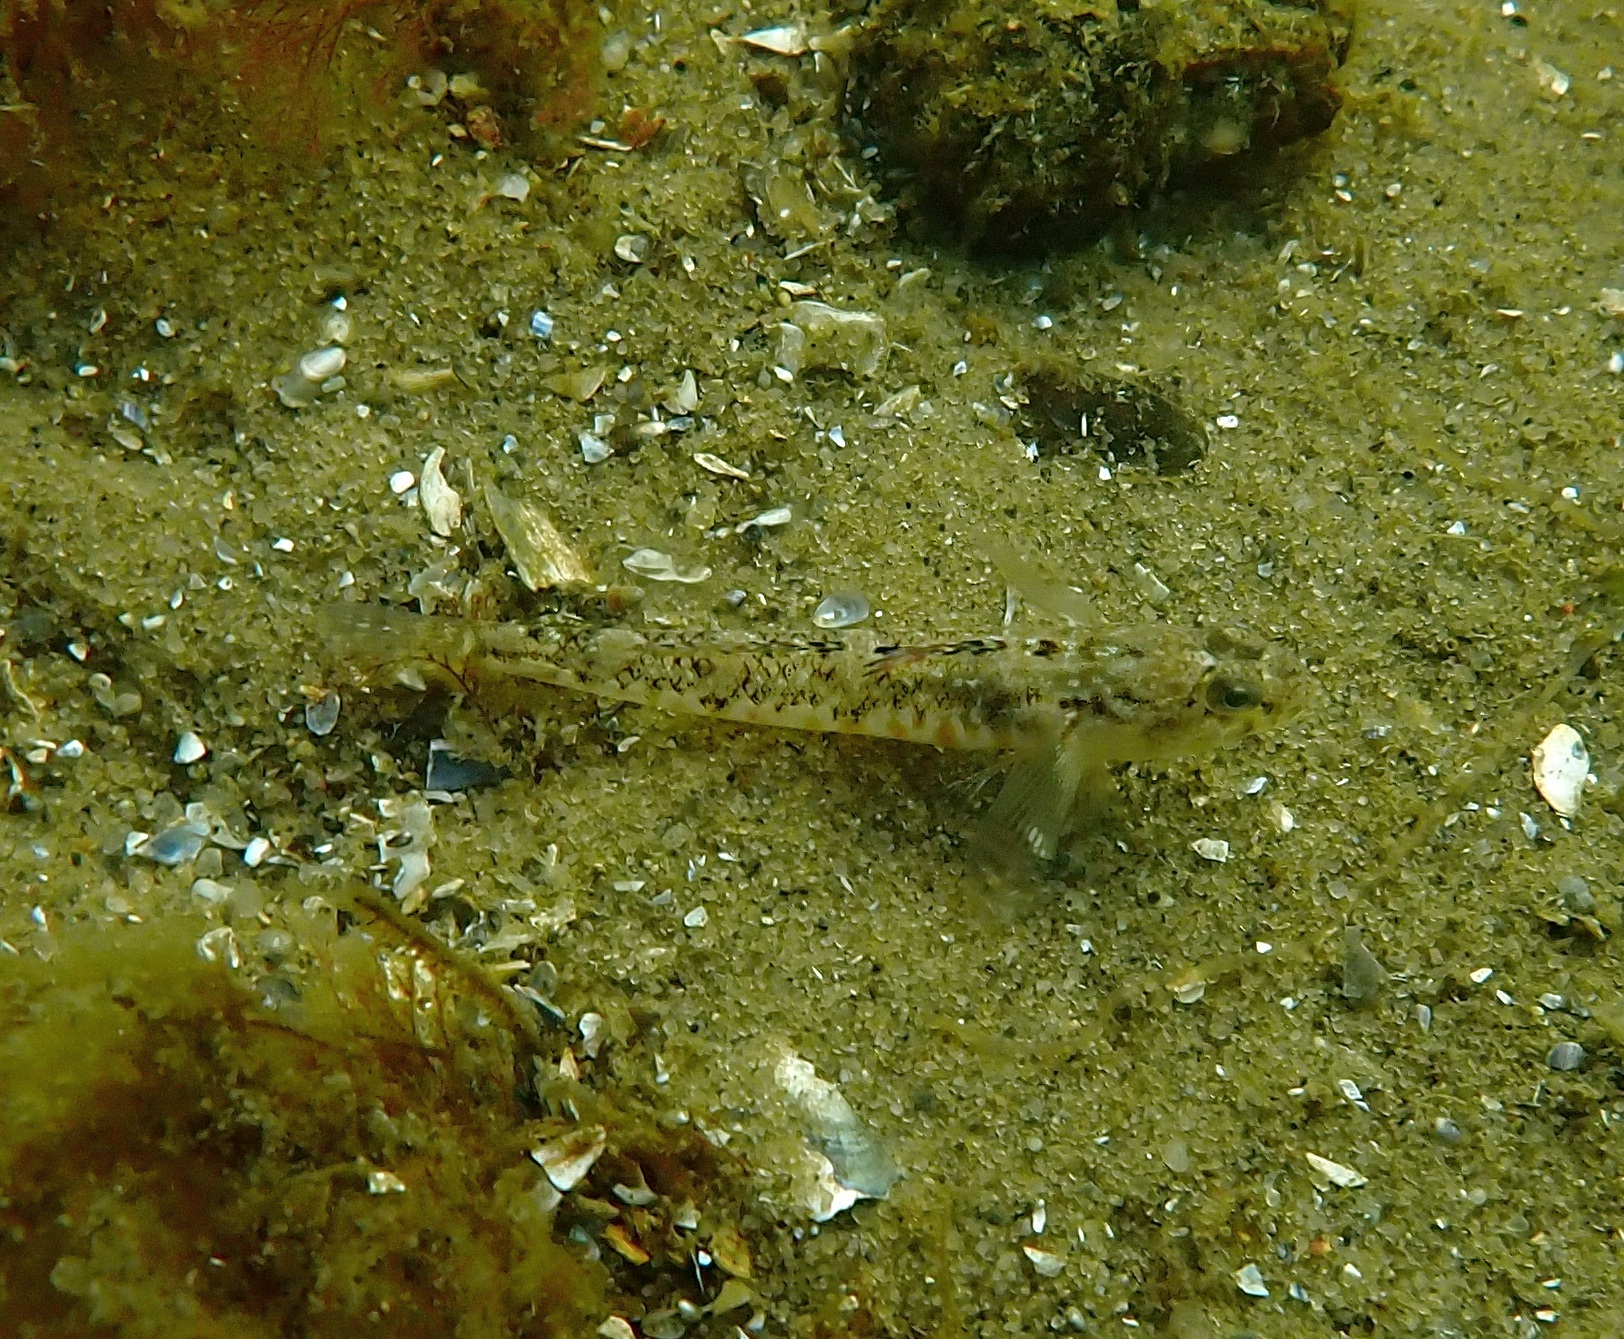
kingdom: Animalia
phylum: Chordata
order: Perciformes
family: Gobiidae
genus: Pomatoschistus
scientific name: Pomatoschistus pictus
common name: Painted goby
